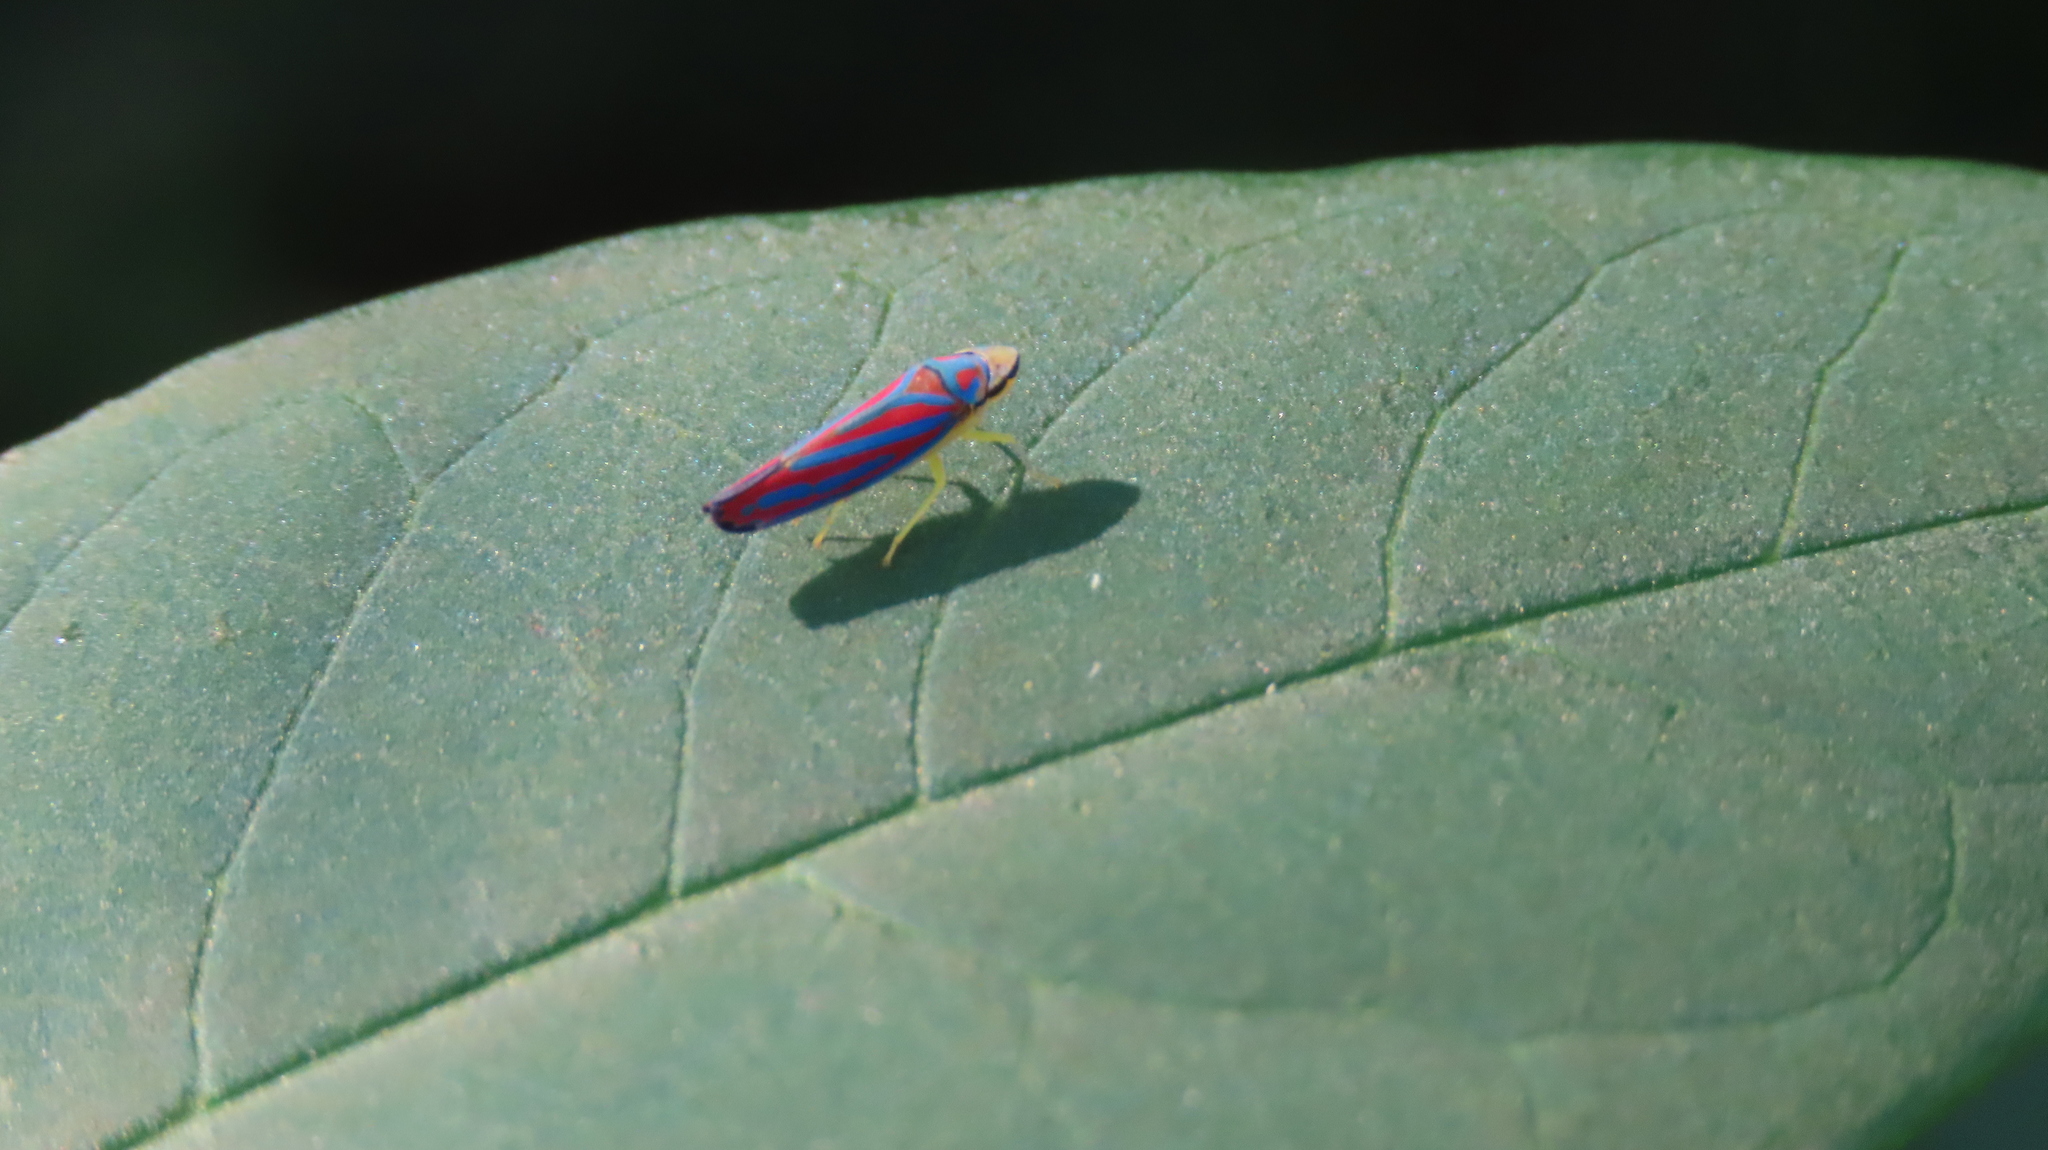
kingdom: Animalia
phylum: Arthropoda
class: Insecta
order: Hemiptera
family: Cicadellidae
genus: Graphocephala
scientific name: Graphocephala coccinea
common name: Candy-striped leafhopper
